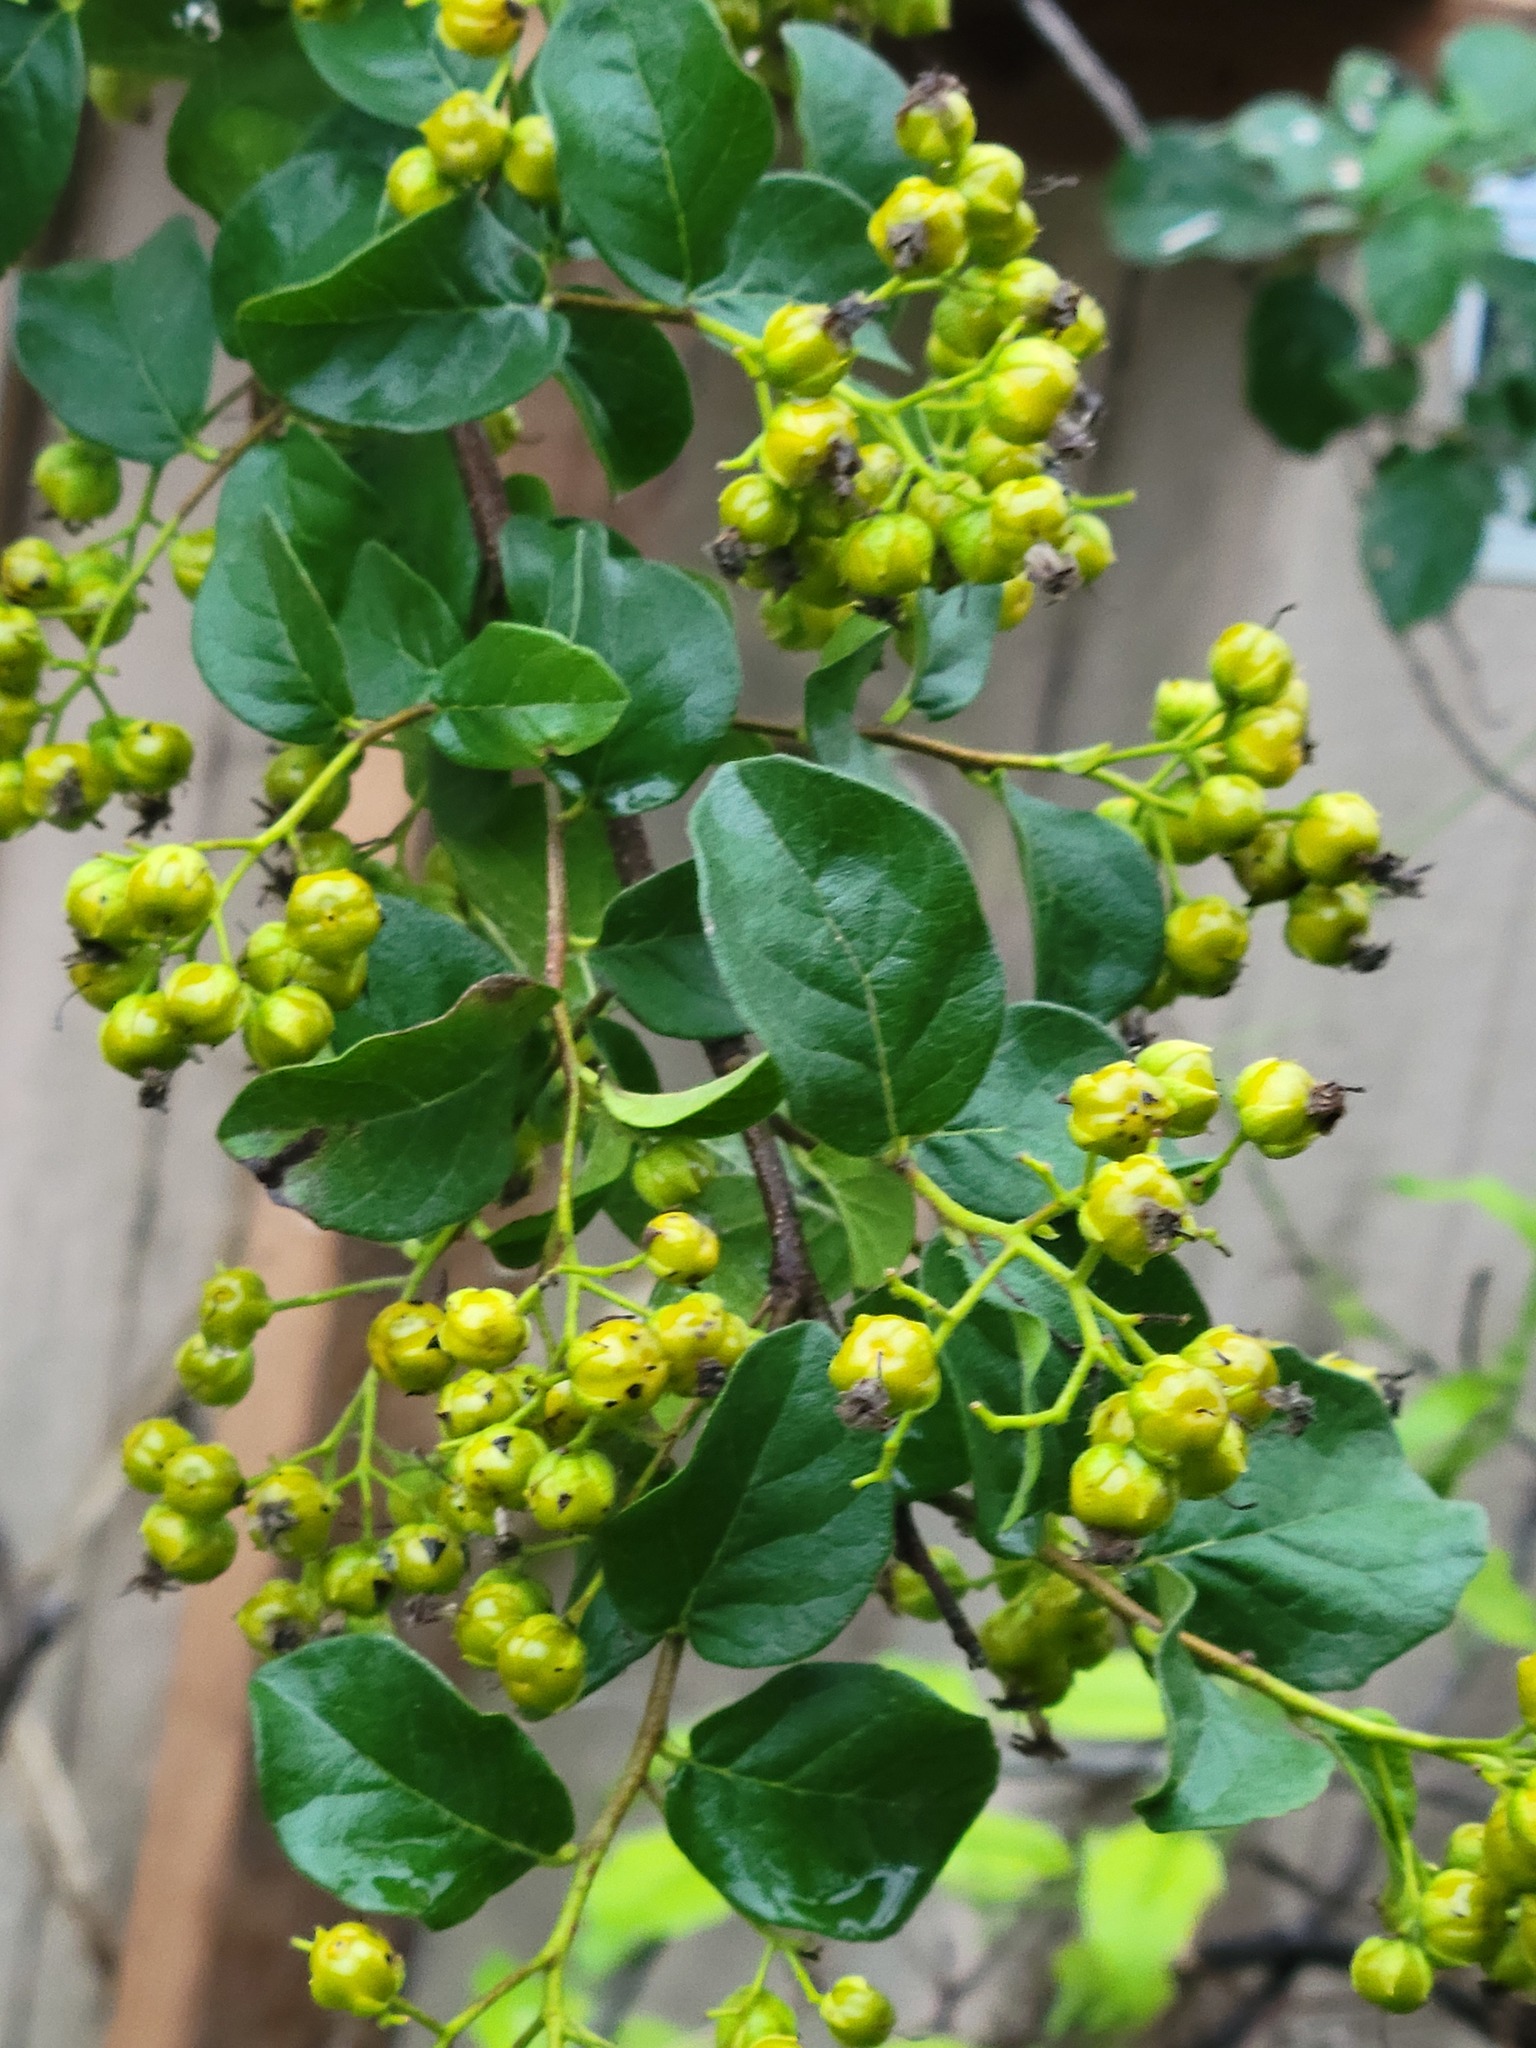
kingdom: Plantae
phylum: Tracheophyta
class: Magnoliopsida
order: Boraginales
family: Ehretiaceae
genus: Ehretia
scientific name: Ehretia anacua
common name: Sugarberry
